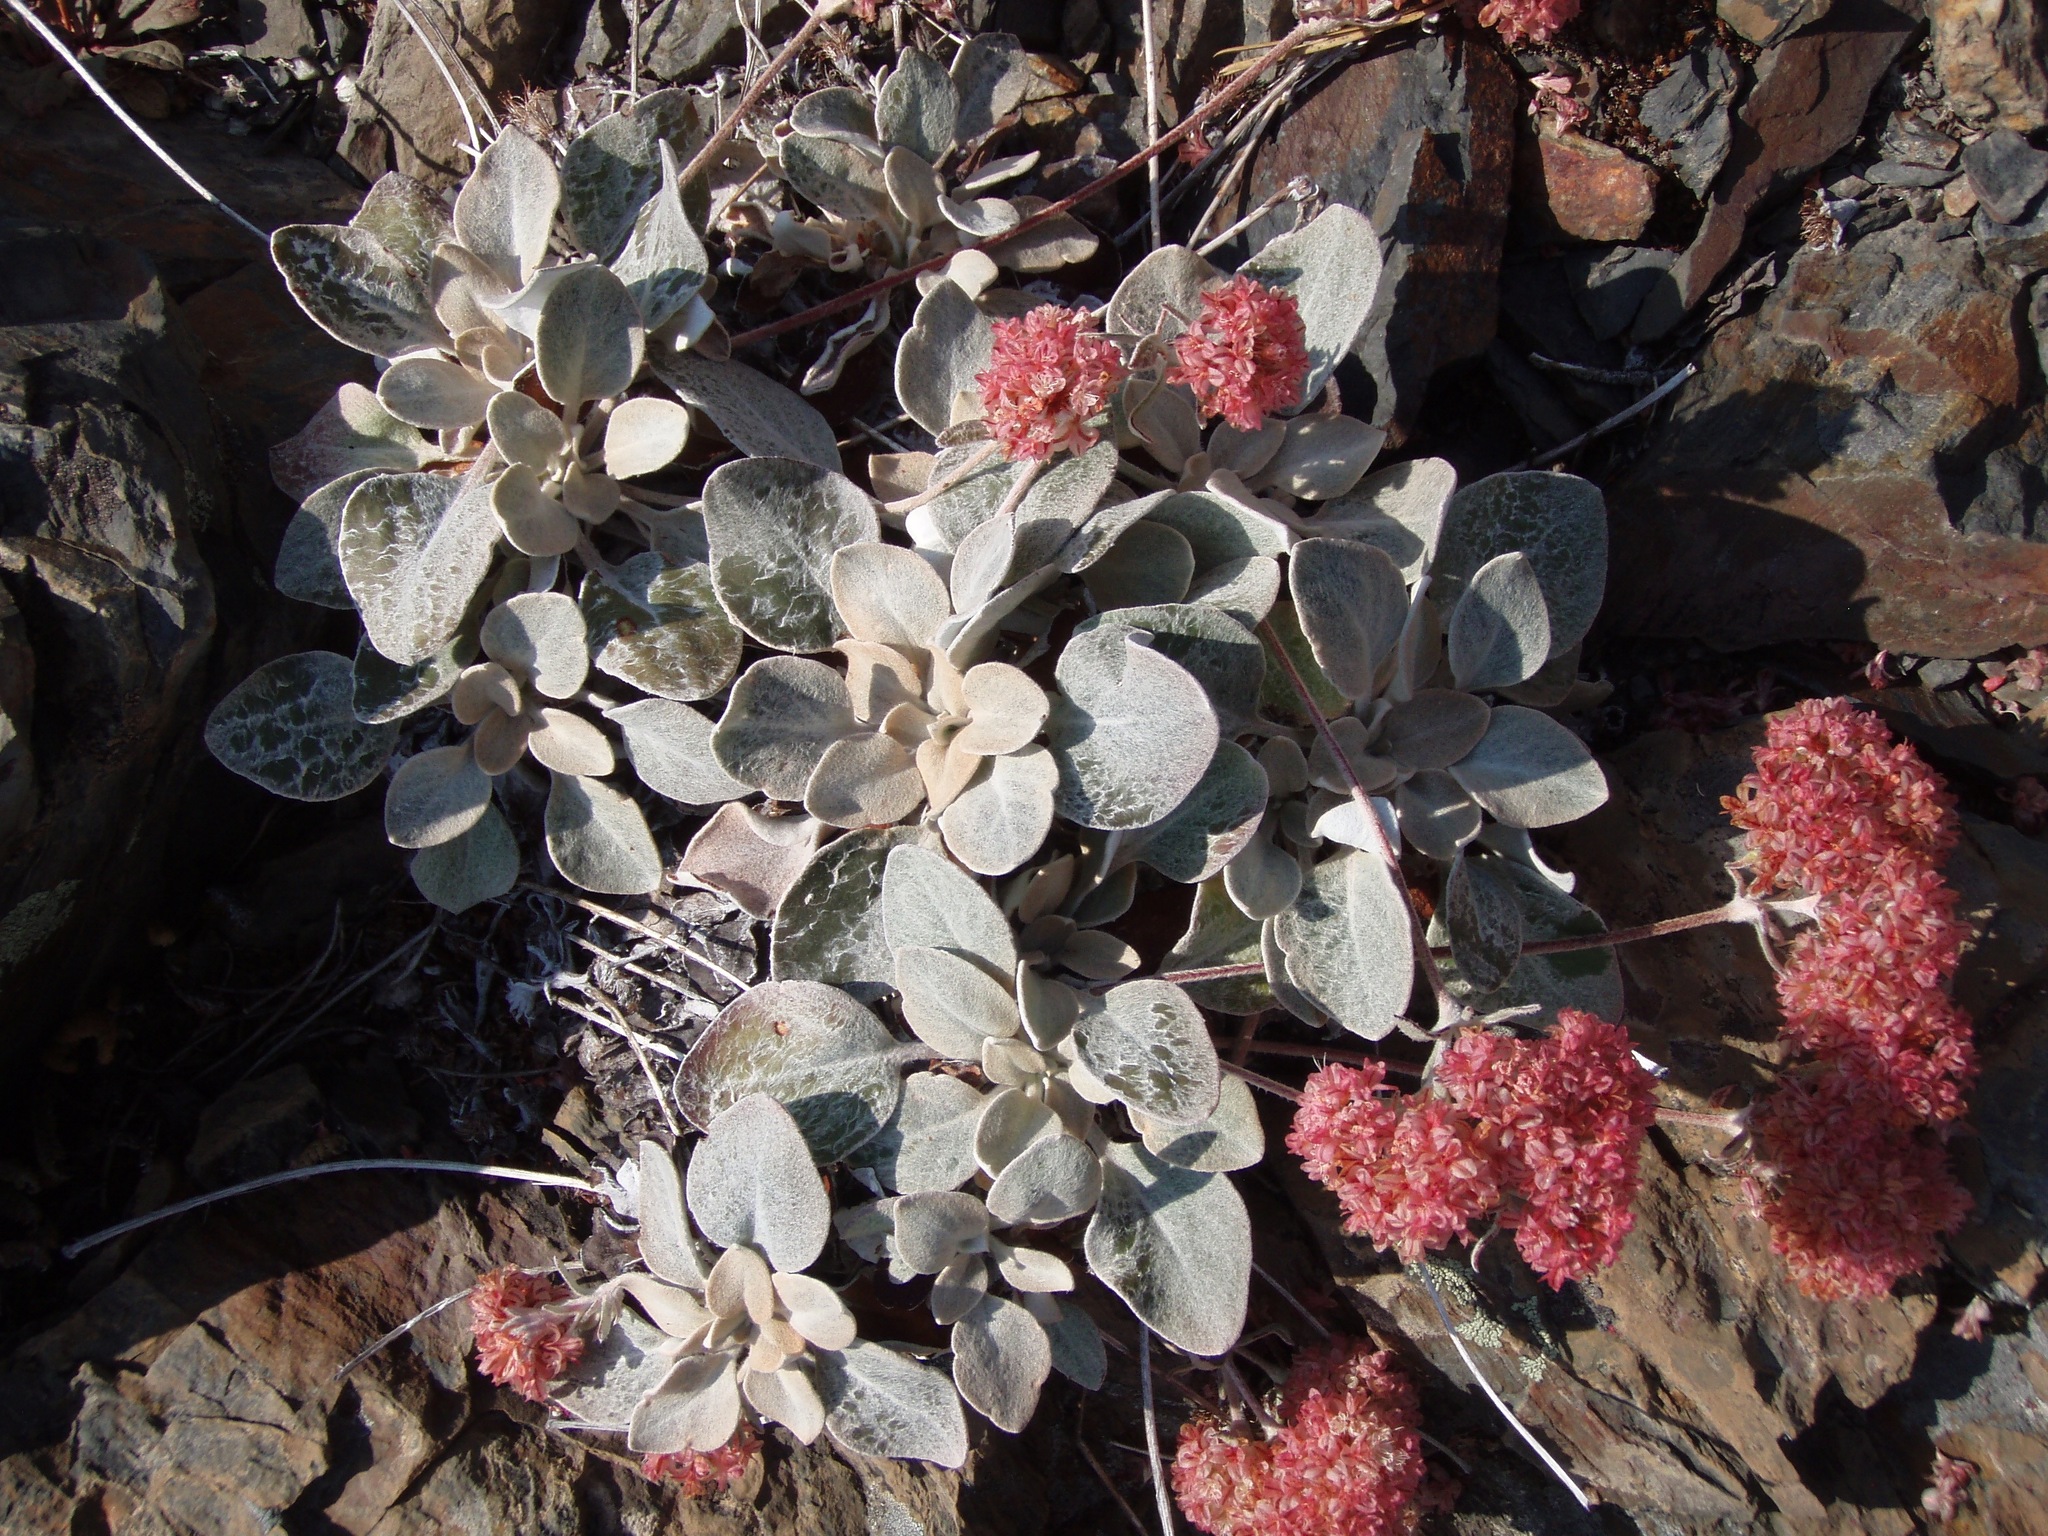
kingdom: Plantae
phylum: Tracheophyta
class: Magnoliopsida
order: Caryophyllales
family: Polygonaceae
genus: Eriogonum
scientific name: Eriogonum lobbii
